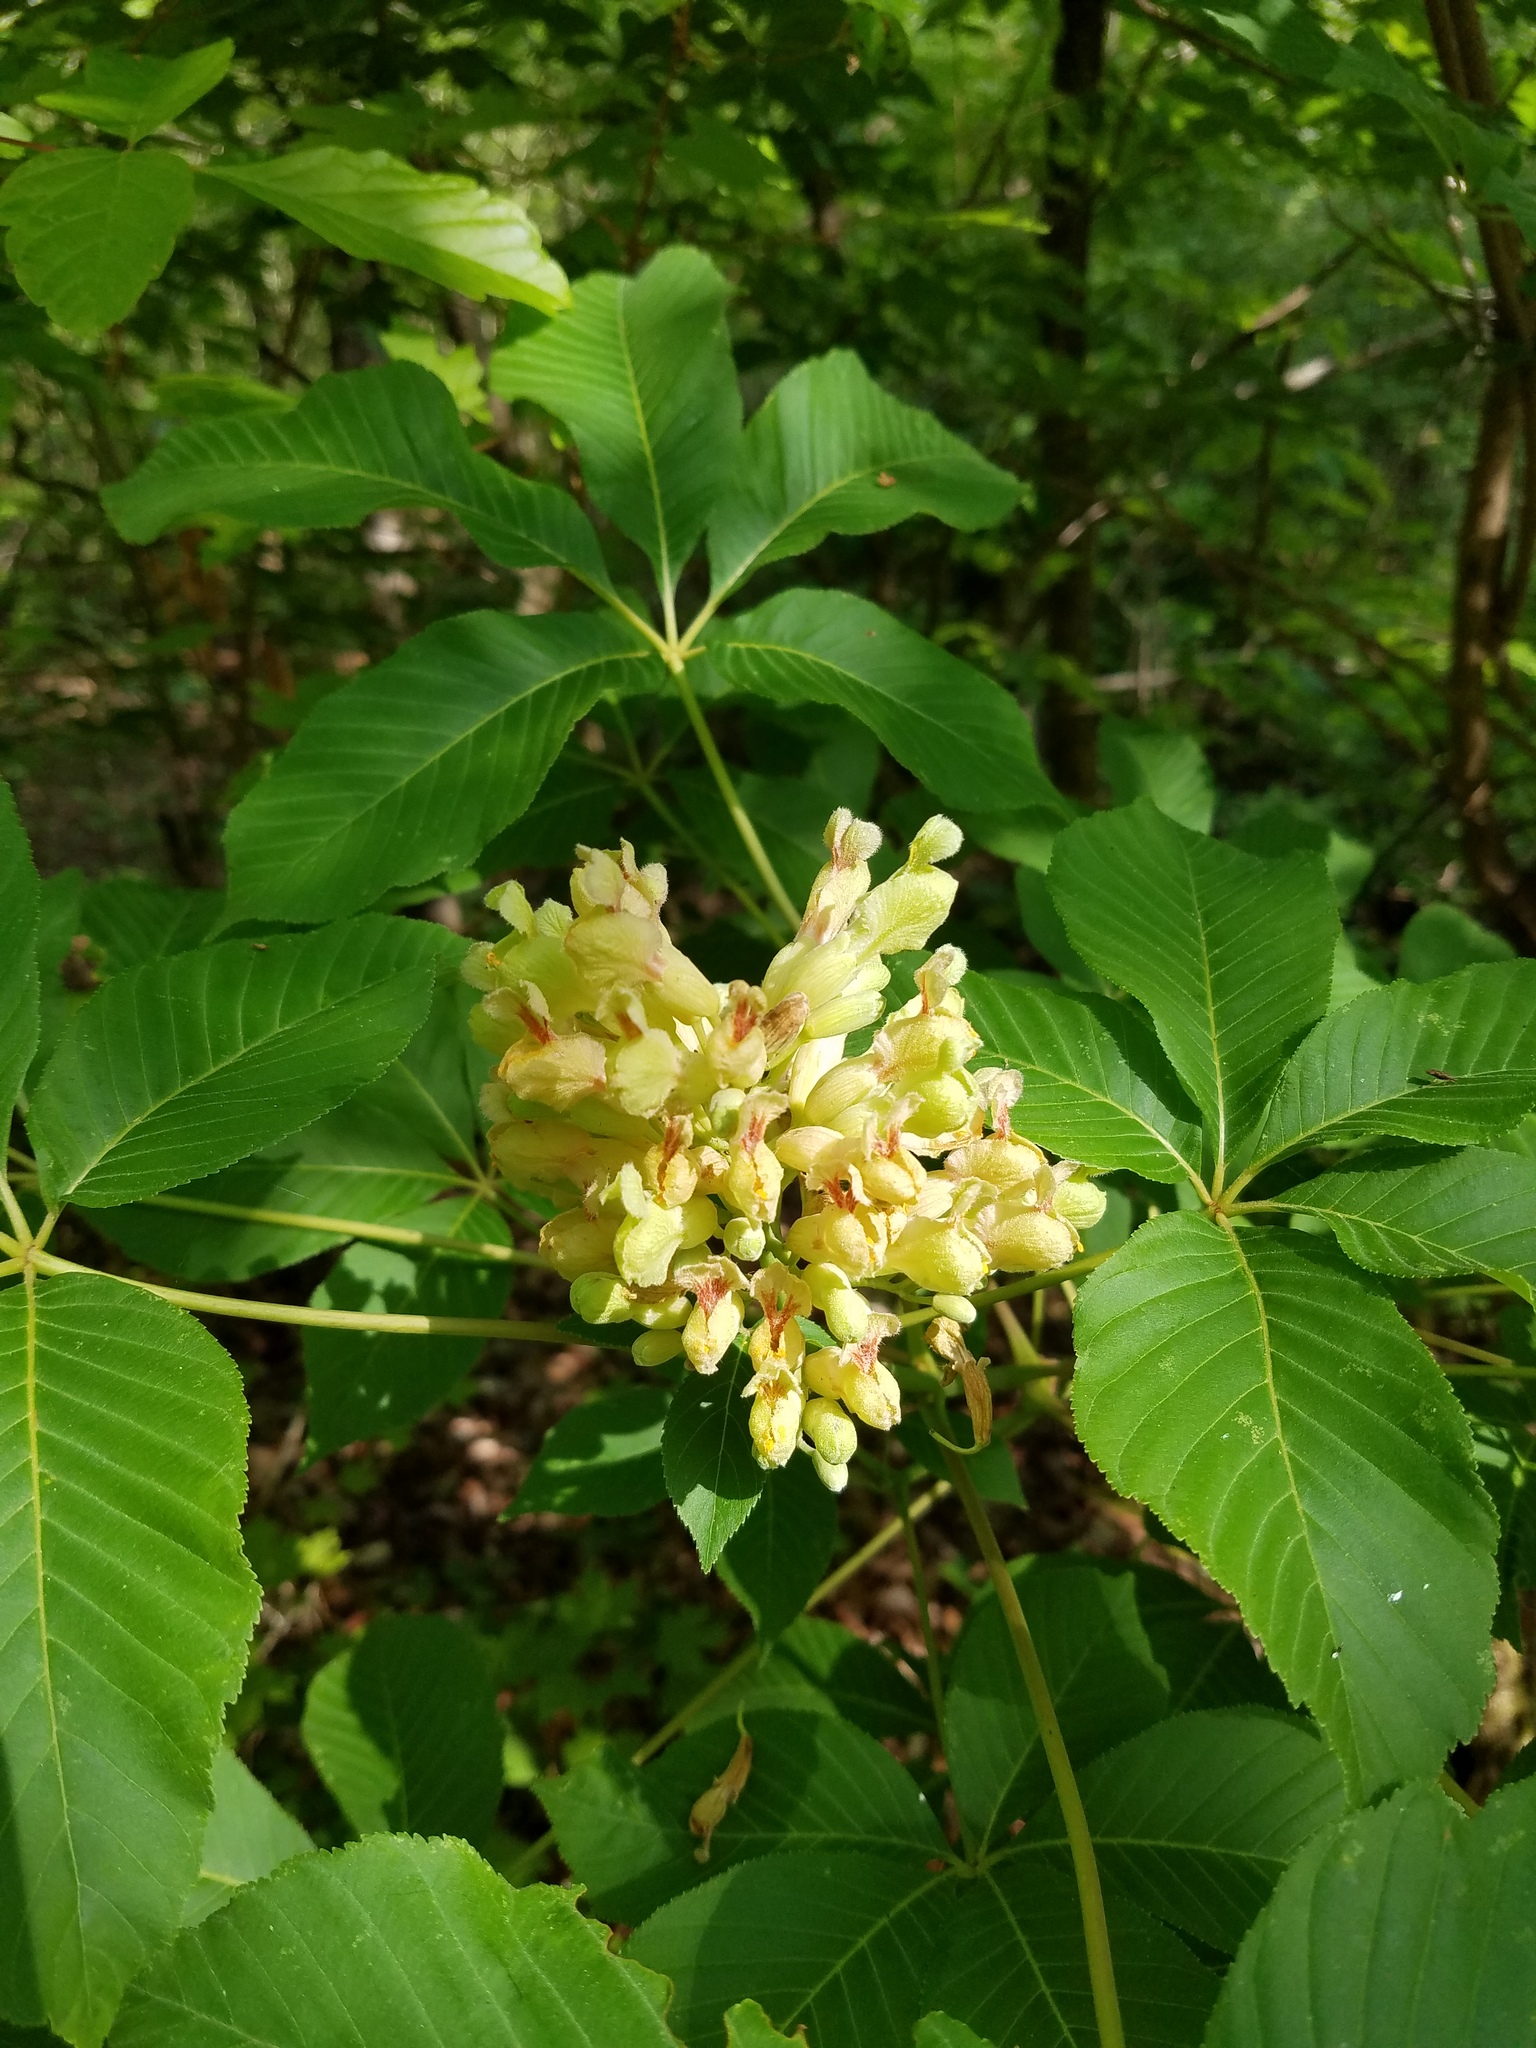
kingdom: Plantae
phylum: Tracheophyta
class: Magnoliopsida
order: Sapindales
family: Sapindaceae
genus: Aesculus
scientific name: Aesculus sylvatica
